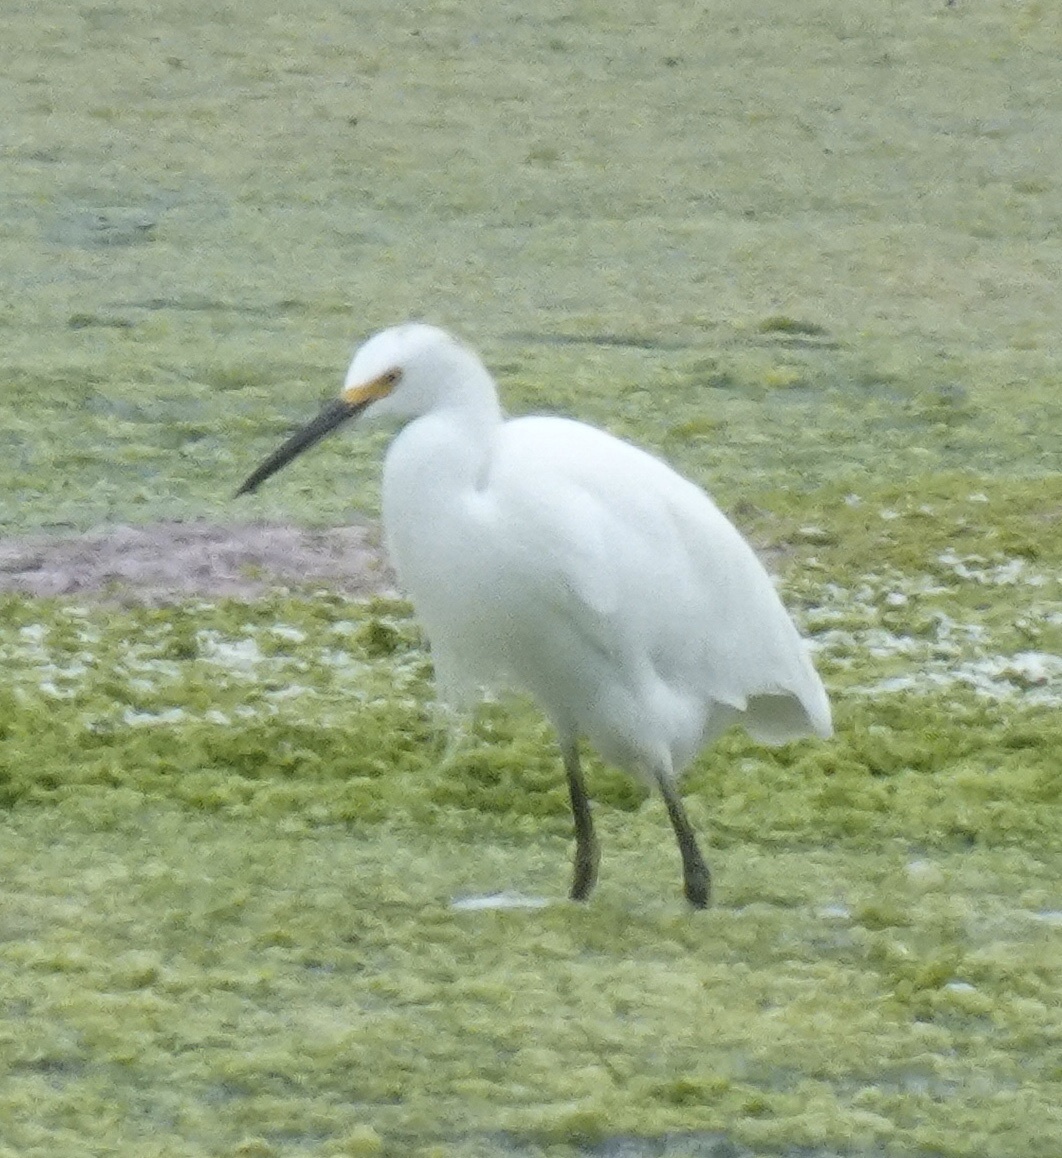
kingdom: Animalia
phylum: Chordata
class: Aves
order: Pelecaniformes
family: Ardeidae
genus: Egretta
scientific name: Egretta thula
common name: Snowy egret
